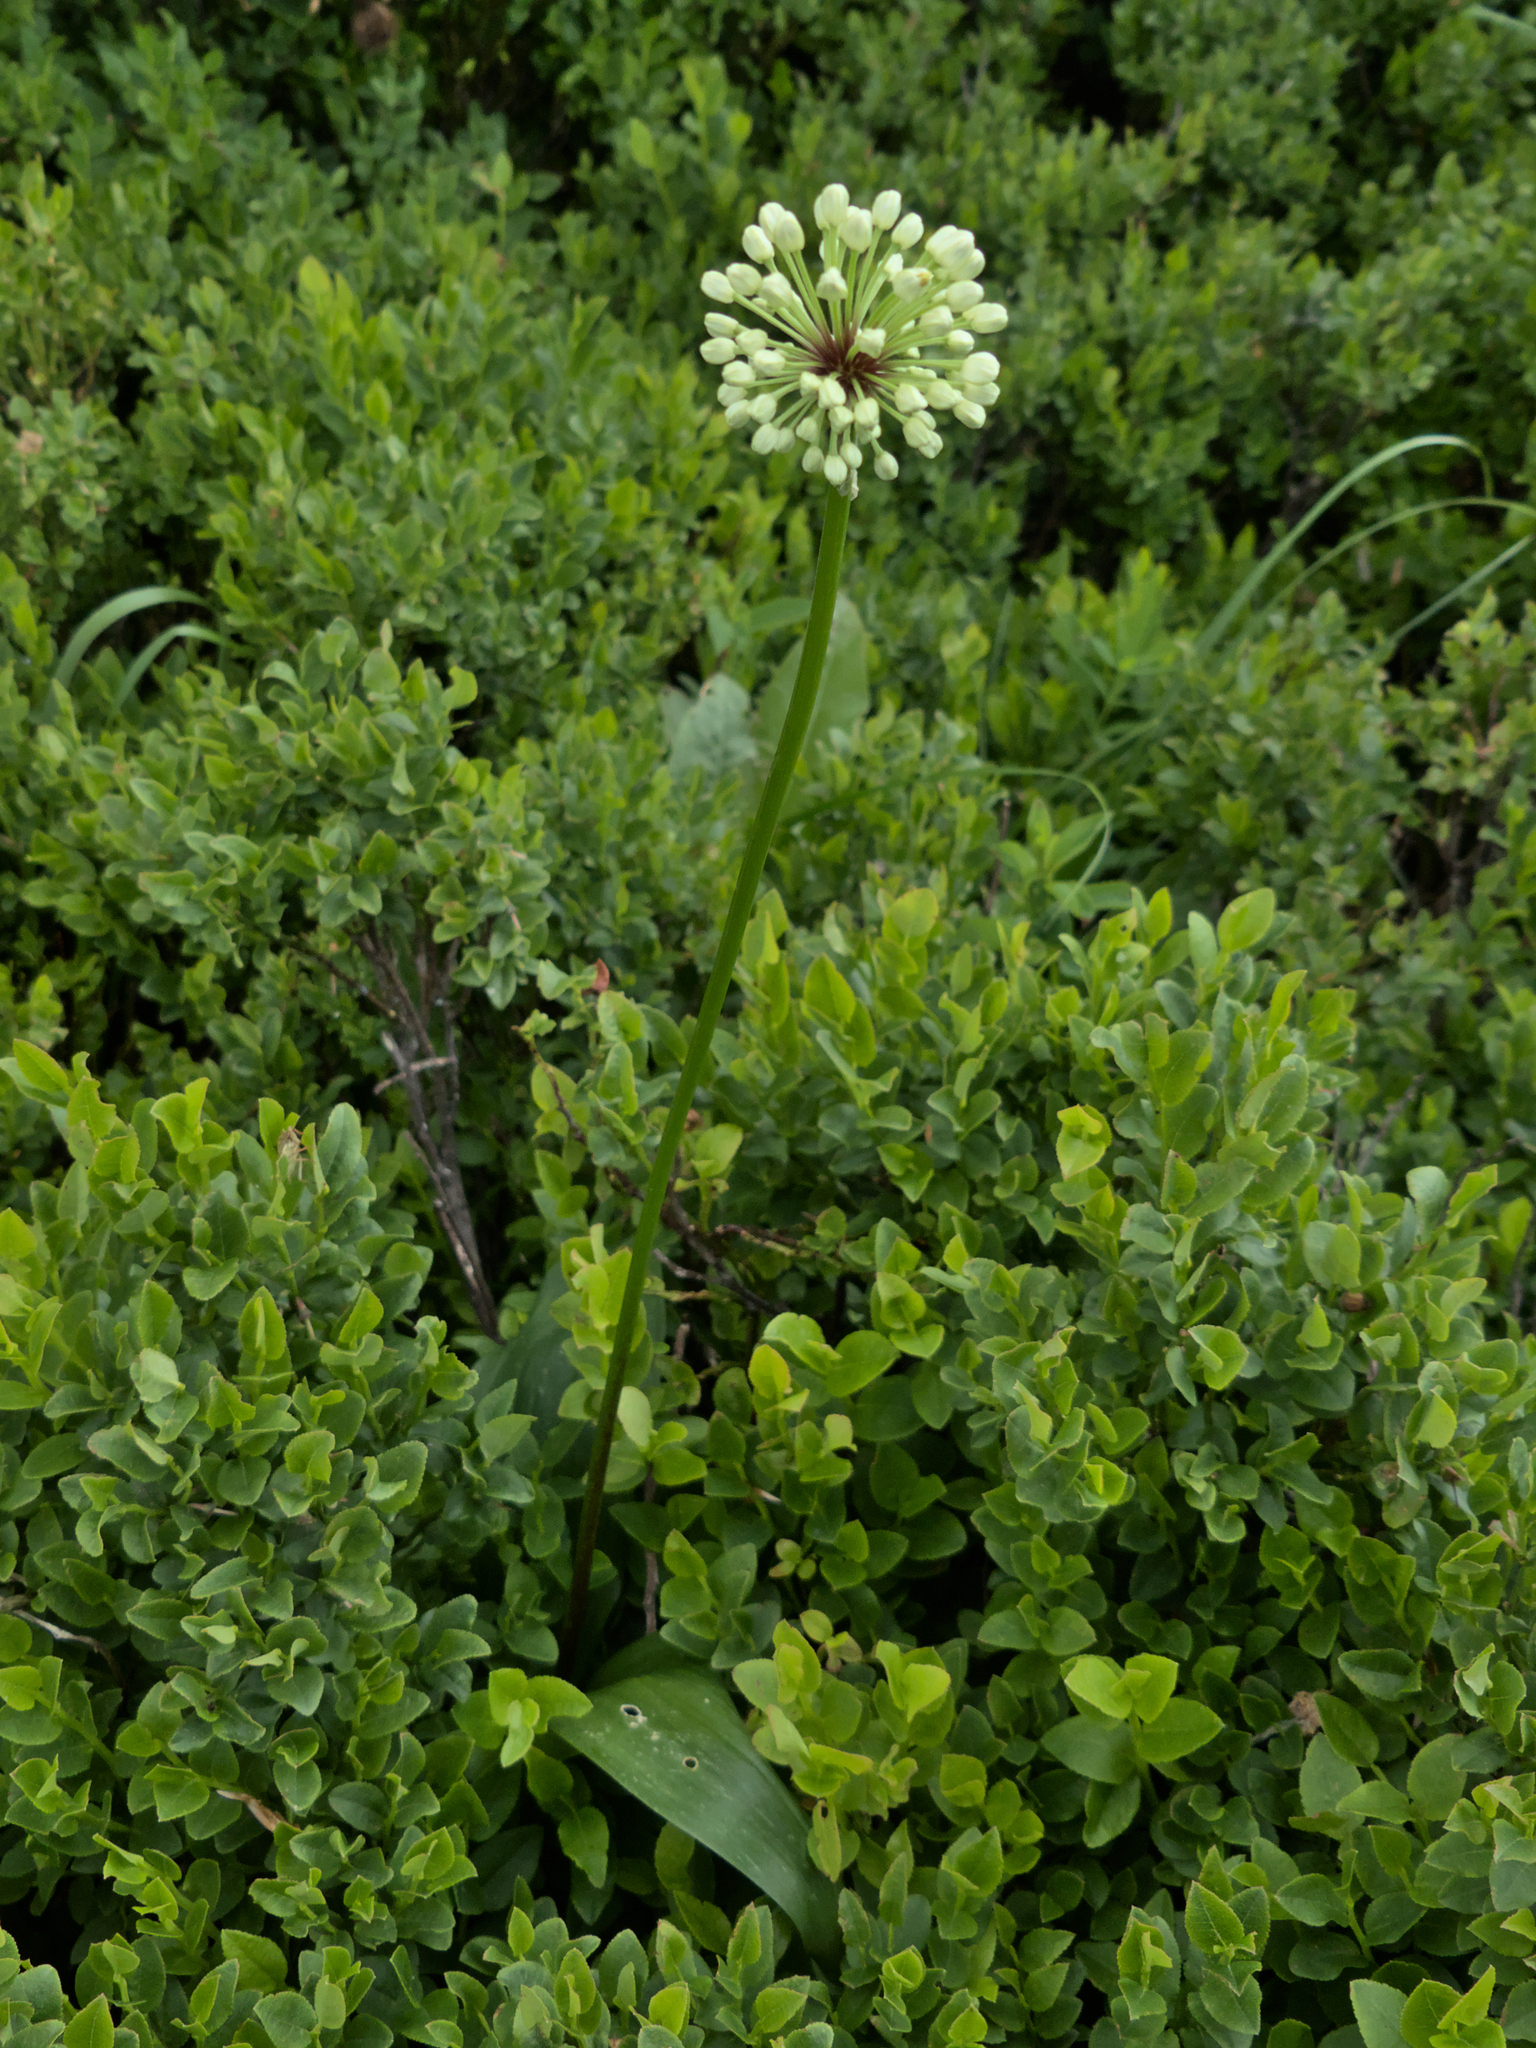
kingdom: Plantae
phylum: Tracheophyta
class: Liliopsida
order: Asparagales
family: Amaryllidaceae
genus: Allium
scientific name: Allium victorialis
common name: Alpine leek
